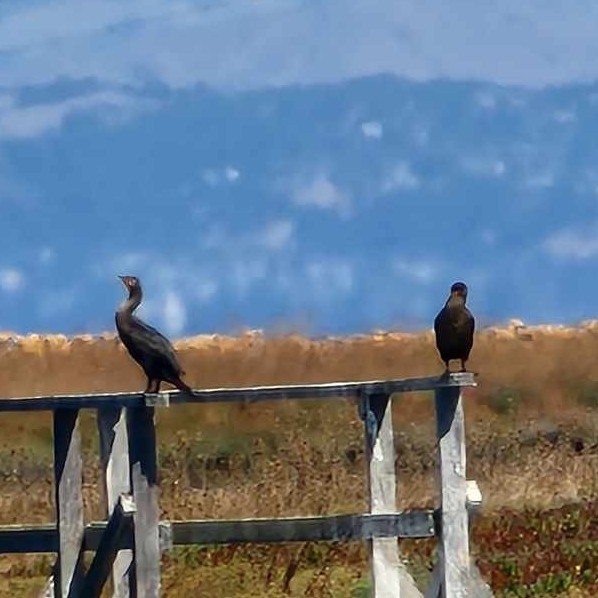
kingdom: Animalia
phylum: Chordata
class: Aves
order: Suliformes
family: Phalacrocoracidae
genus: Phalacrocorax
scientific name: Phalacrocorax auritus
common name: Double-crested cormorant
